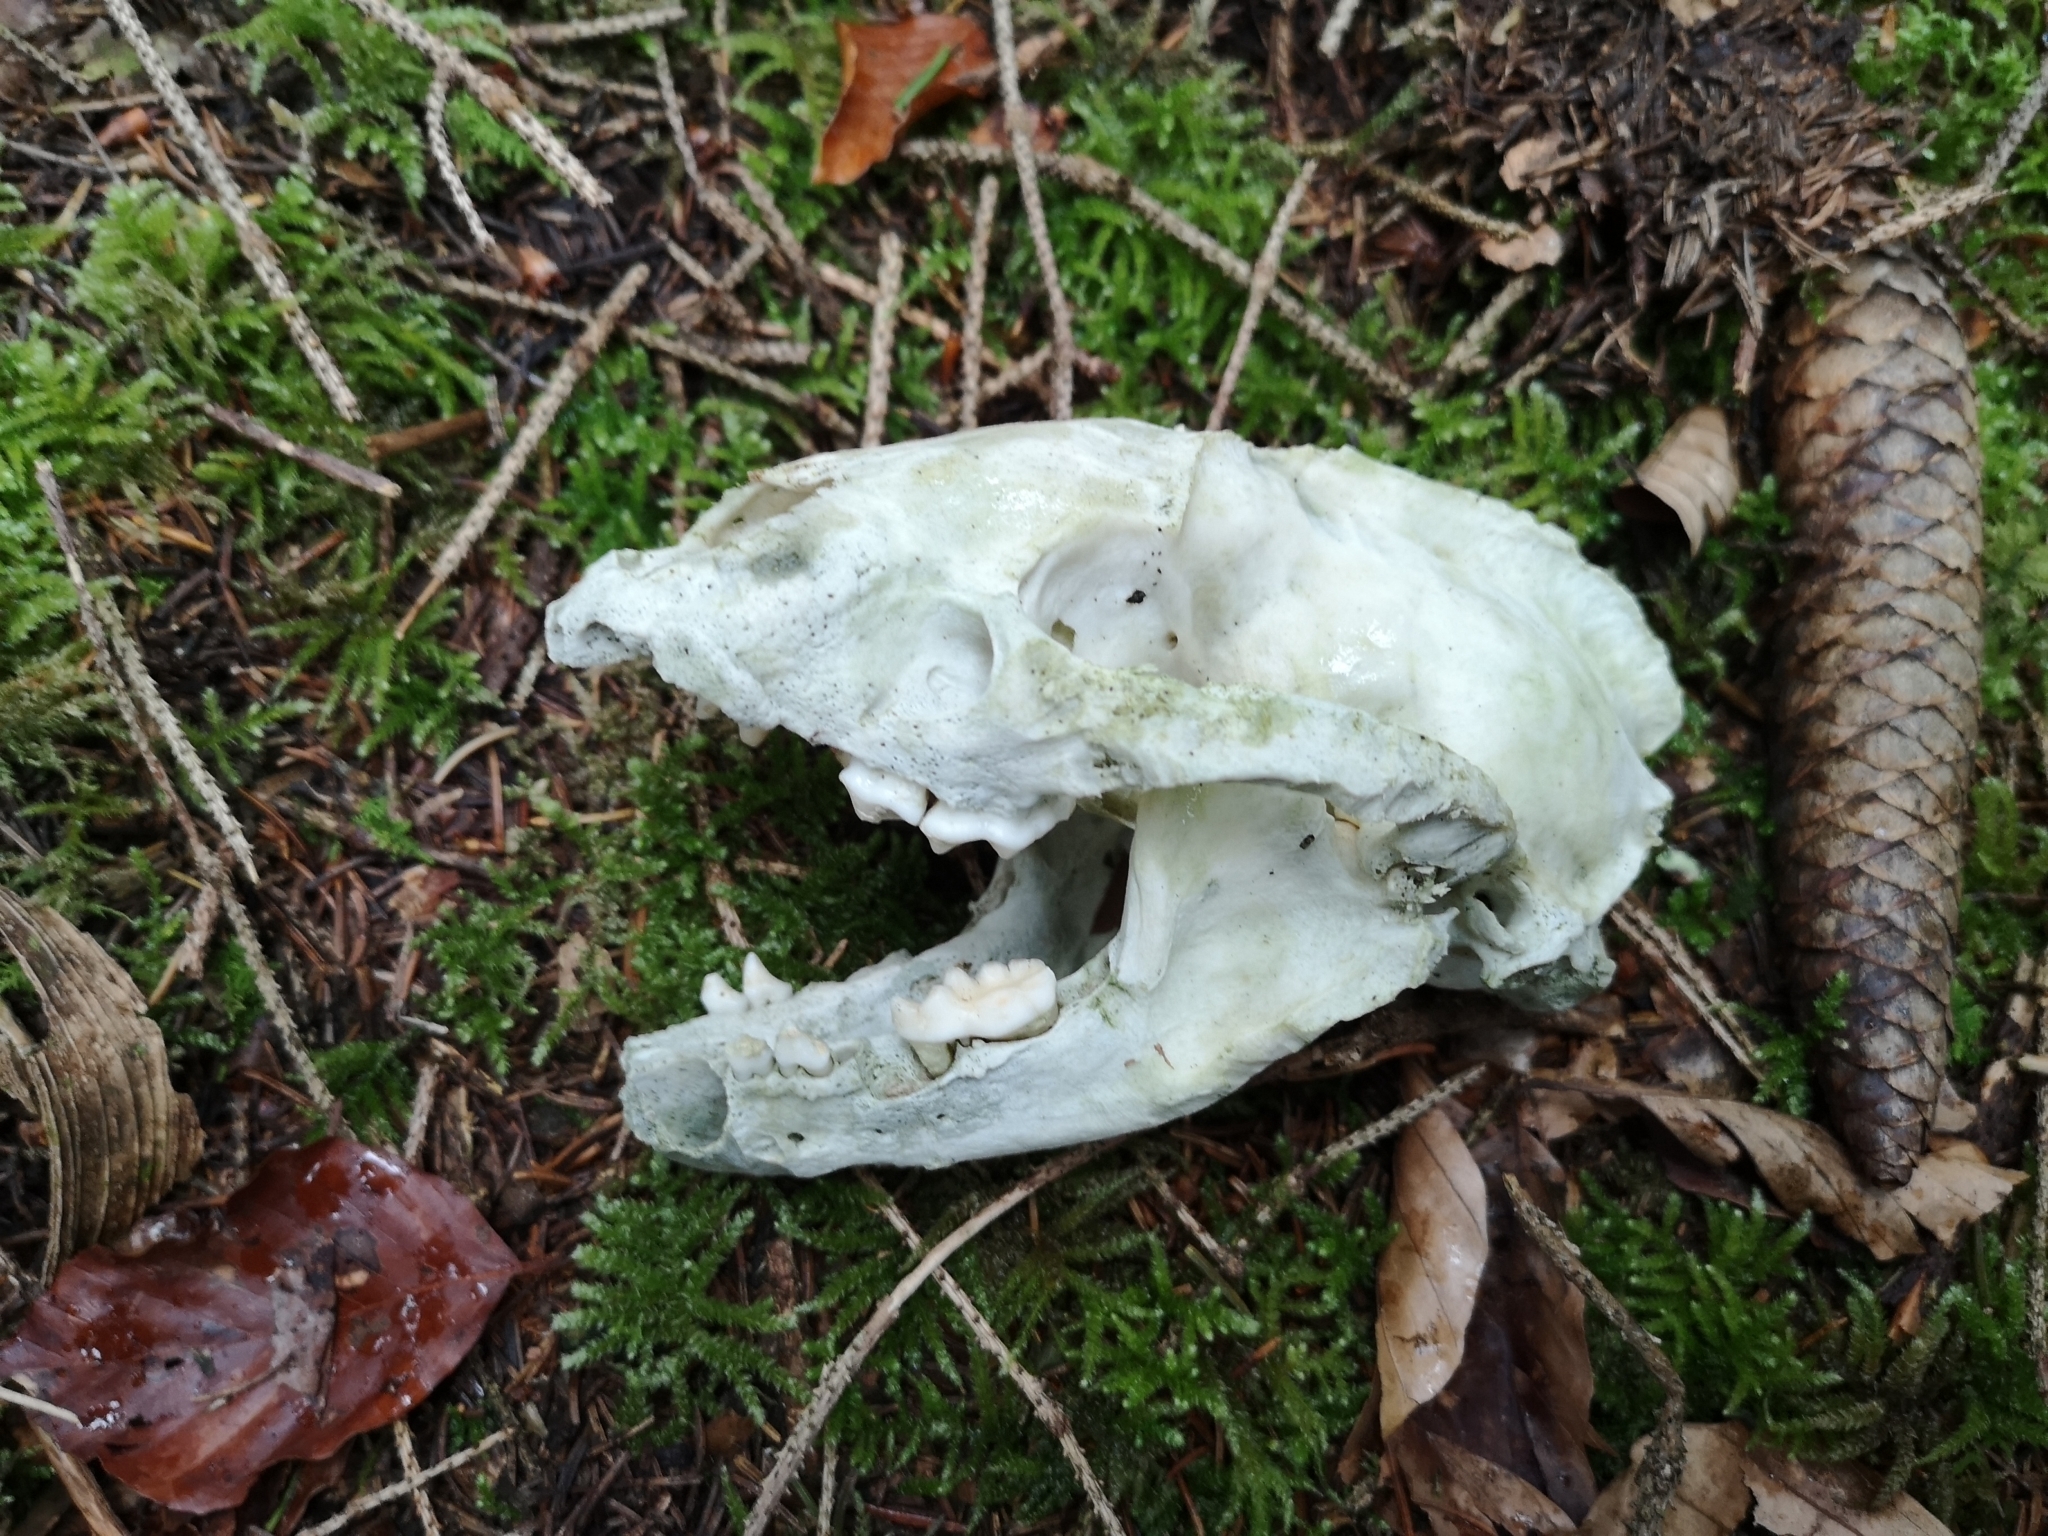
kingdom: Animalia
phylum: Chordata
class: Mammalia
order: Carnivora
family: Mustelidae
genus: Meles
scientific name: Meles meles
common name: Eurasian badger
